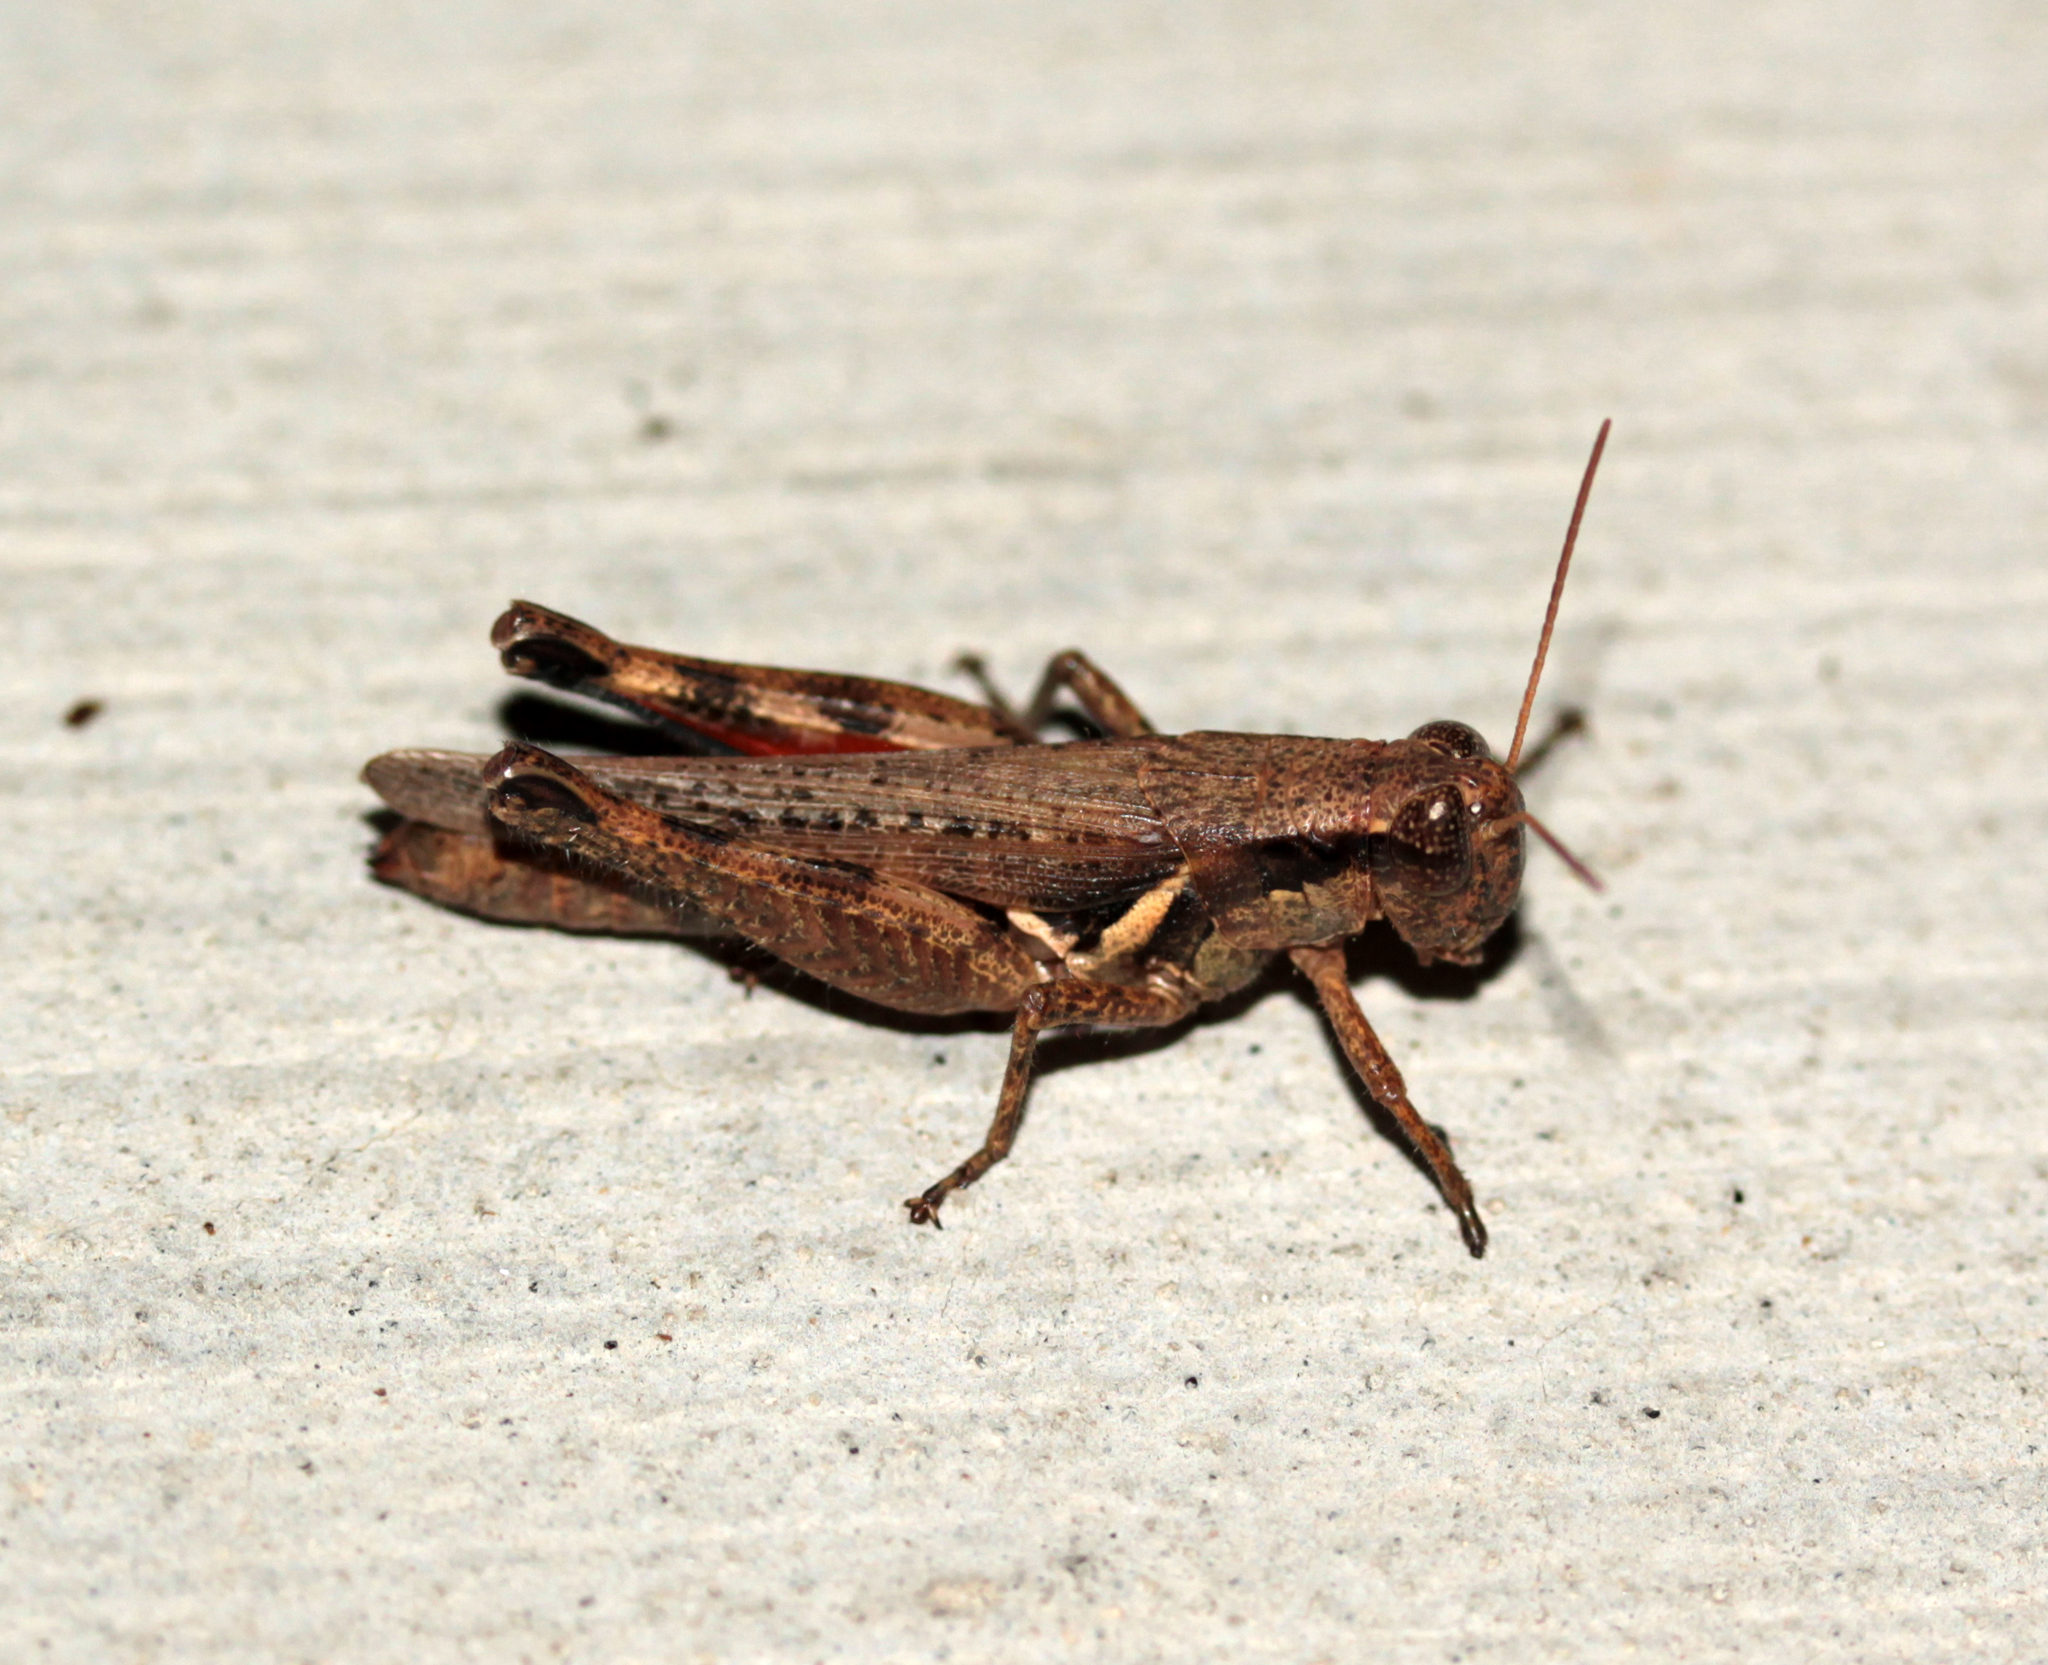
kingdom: Animalia
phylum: Arthropoda
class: Insecta
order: Orthoptera
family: Acrididae
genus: Melanoplus
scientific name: Melanoplus cinereus
